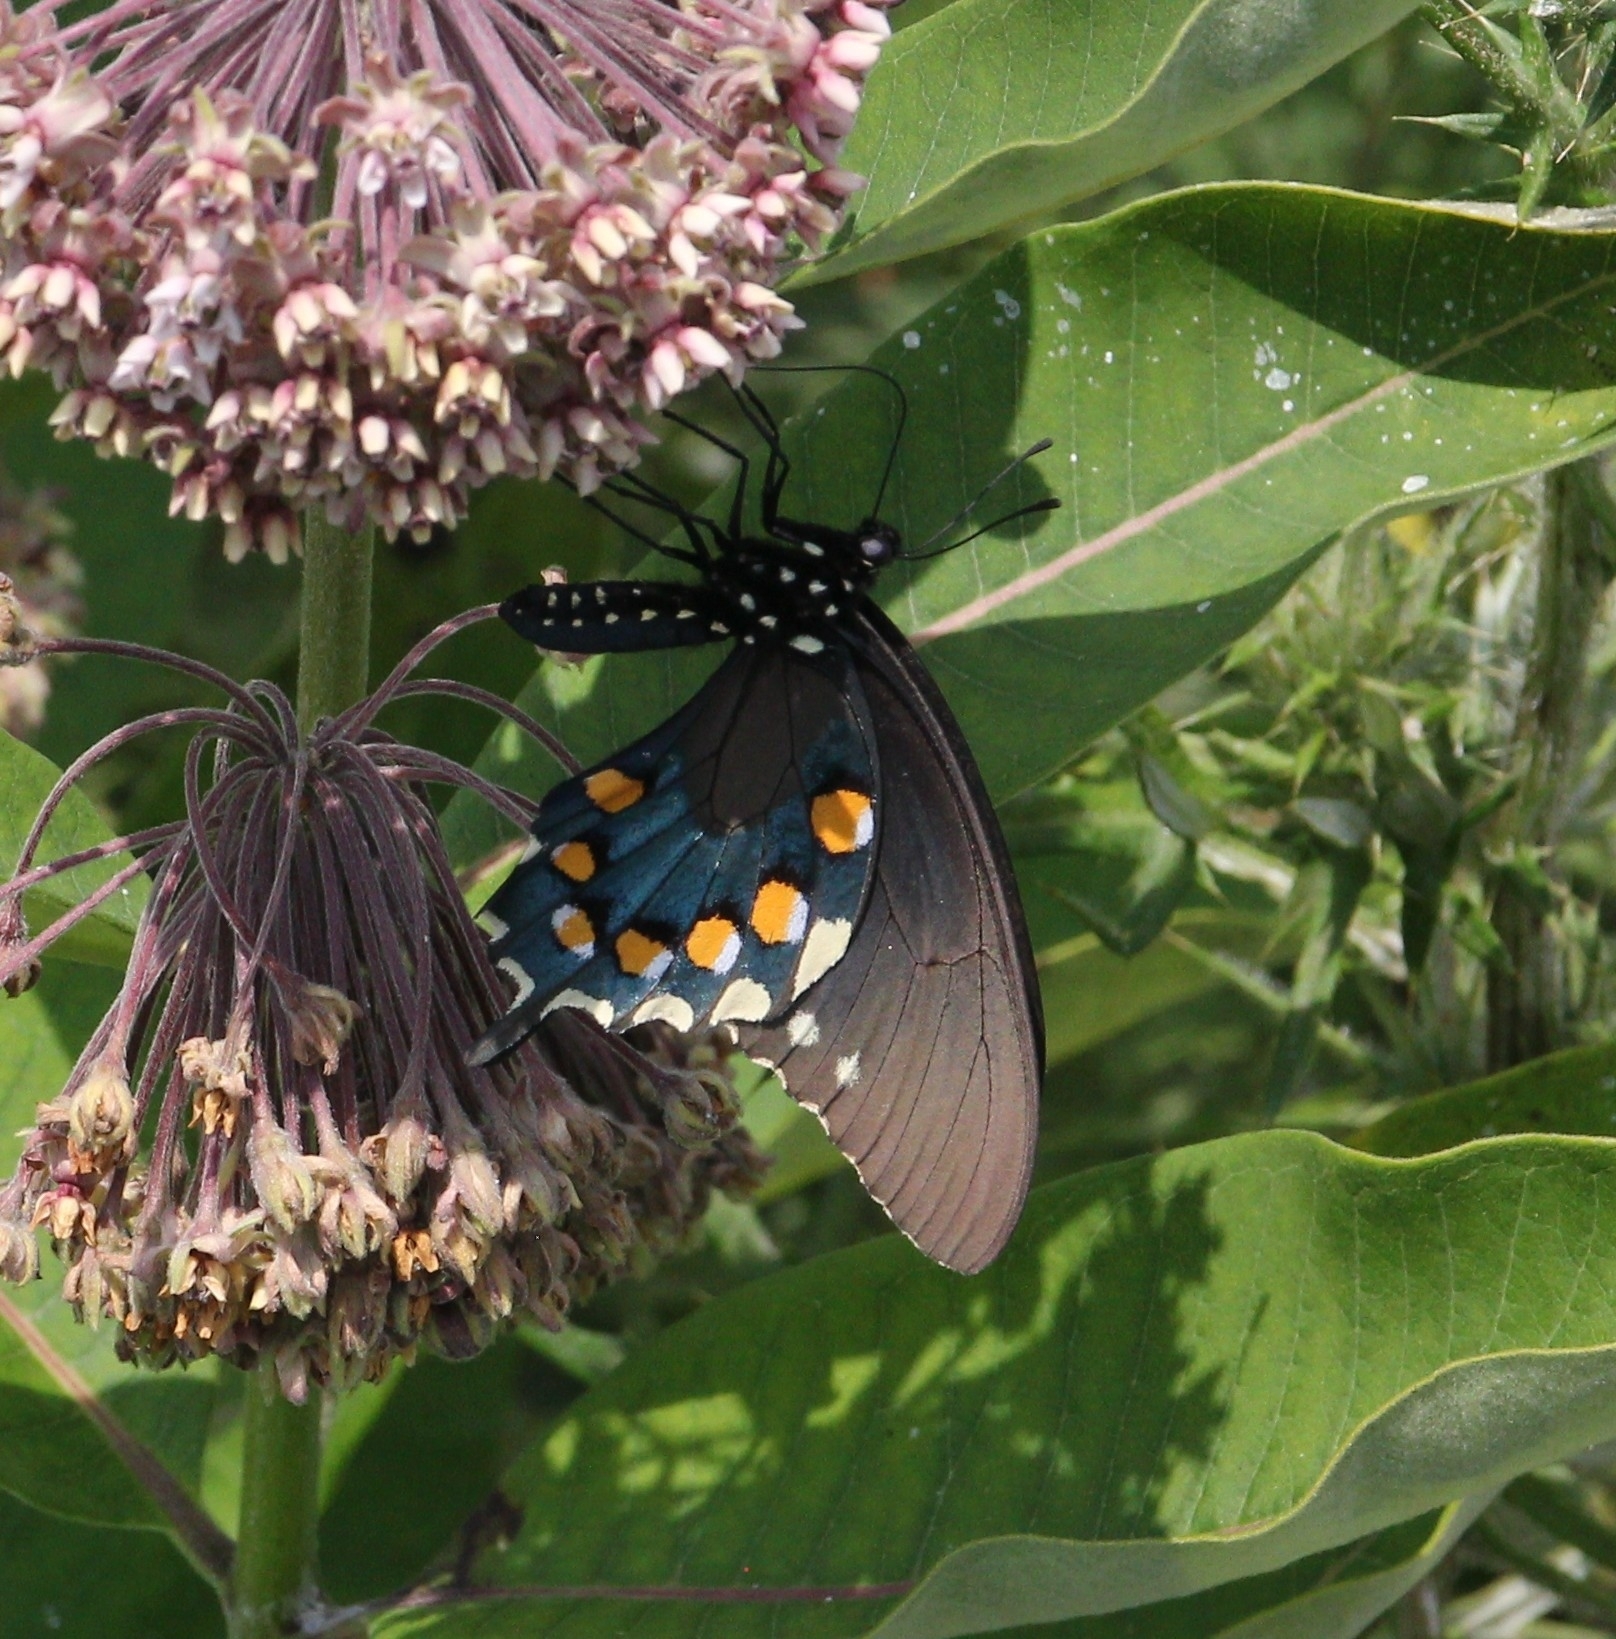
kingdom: Animalia
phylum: Arthropoda
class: Insecta
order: Lepidoptera
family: Papilionidae
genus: Battus
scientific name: Battus philenor
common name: Pipevine swallowtail
